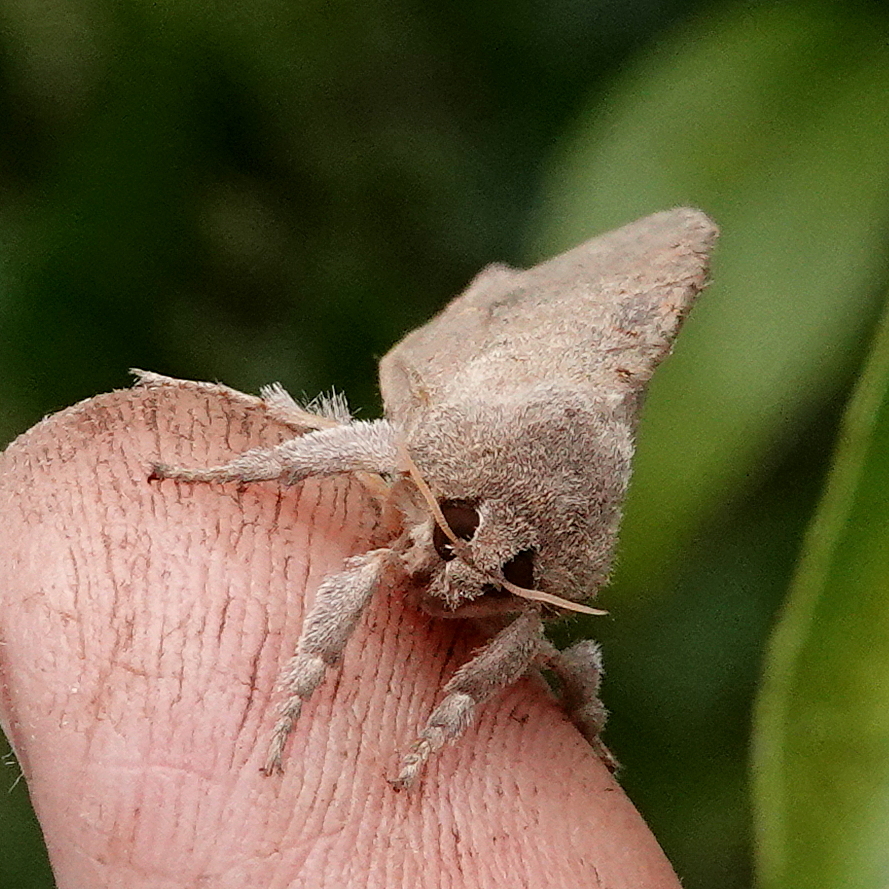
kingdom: Animalia
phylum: Arthropoda
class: Insecta
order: Lepidoptera
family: Hepialidae
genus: Elhamma
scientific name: Elhamma australasiae
